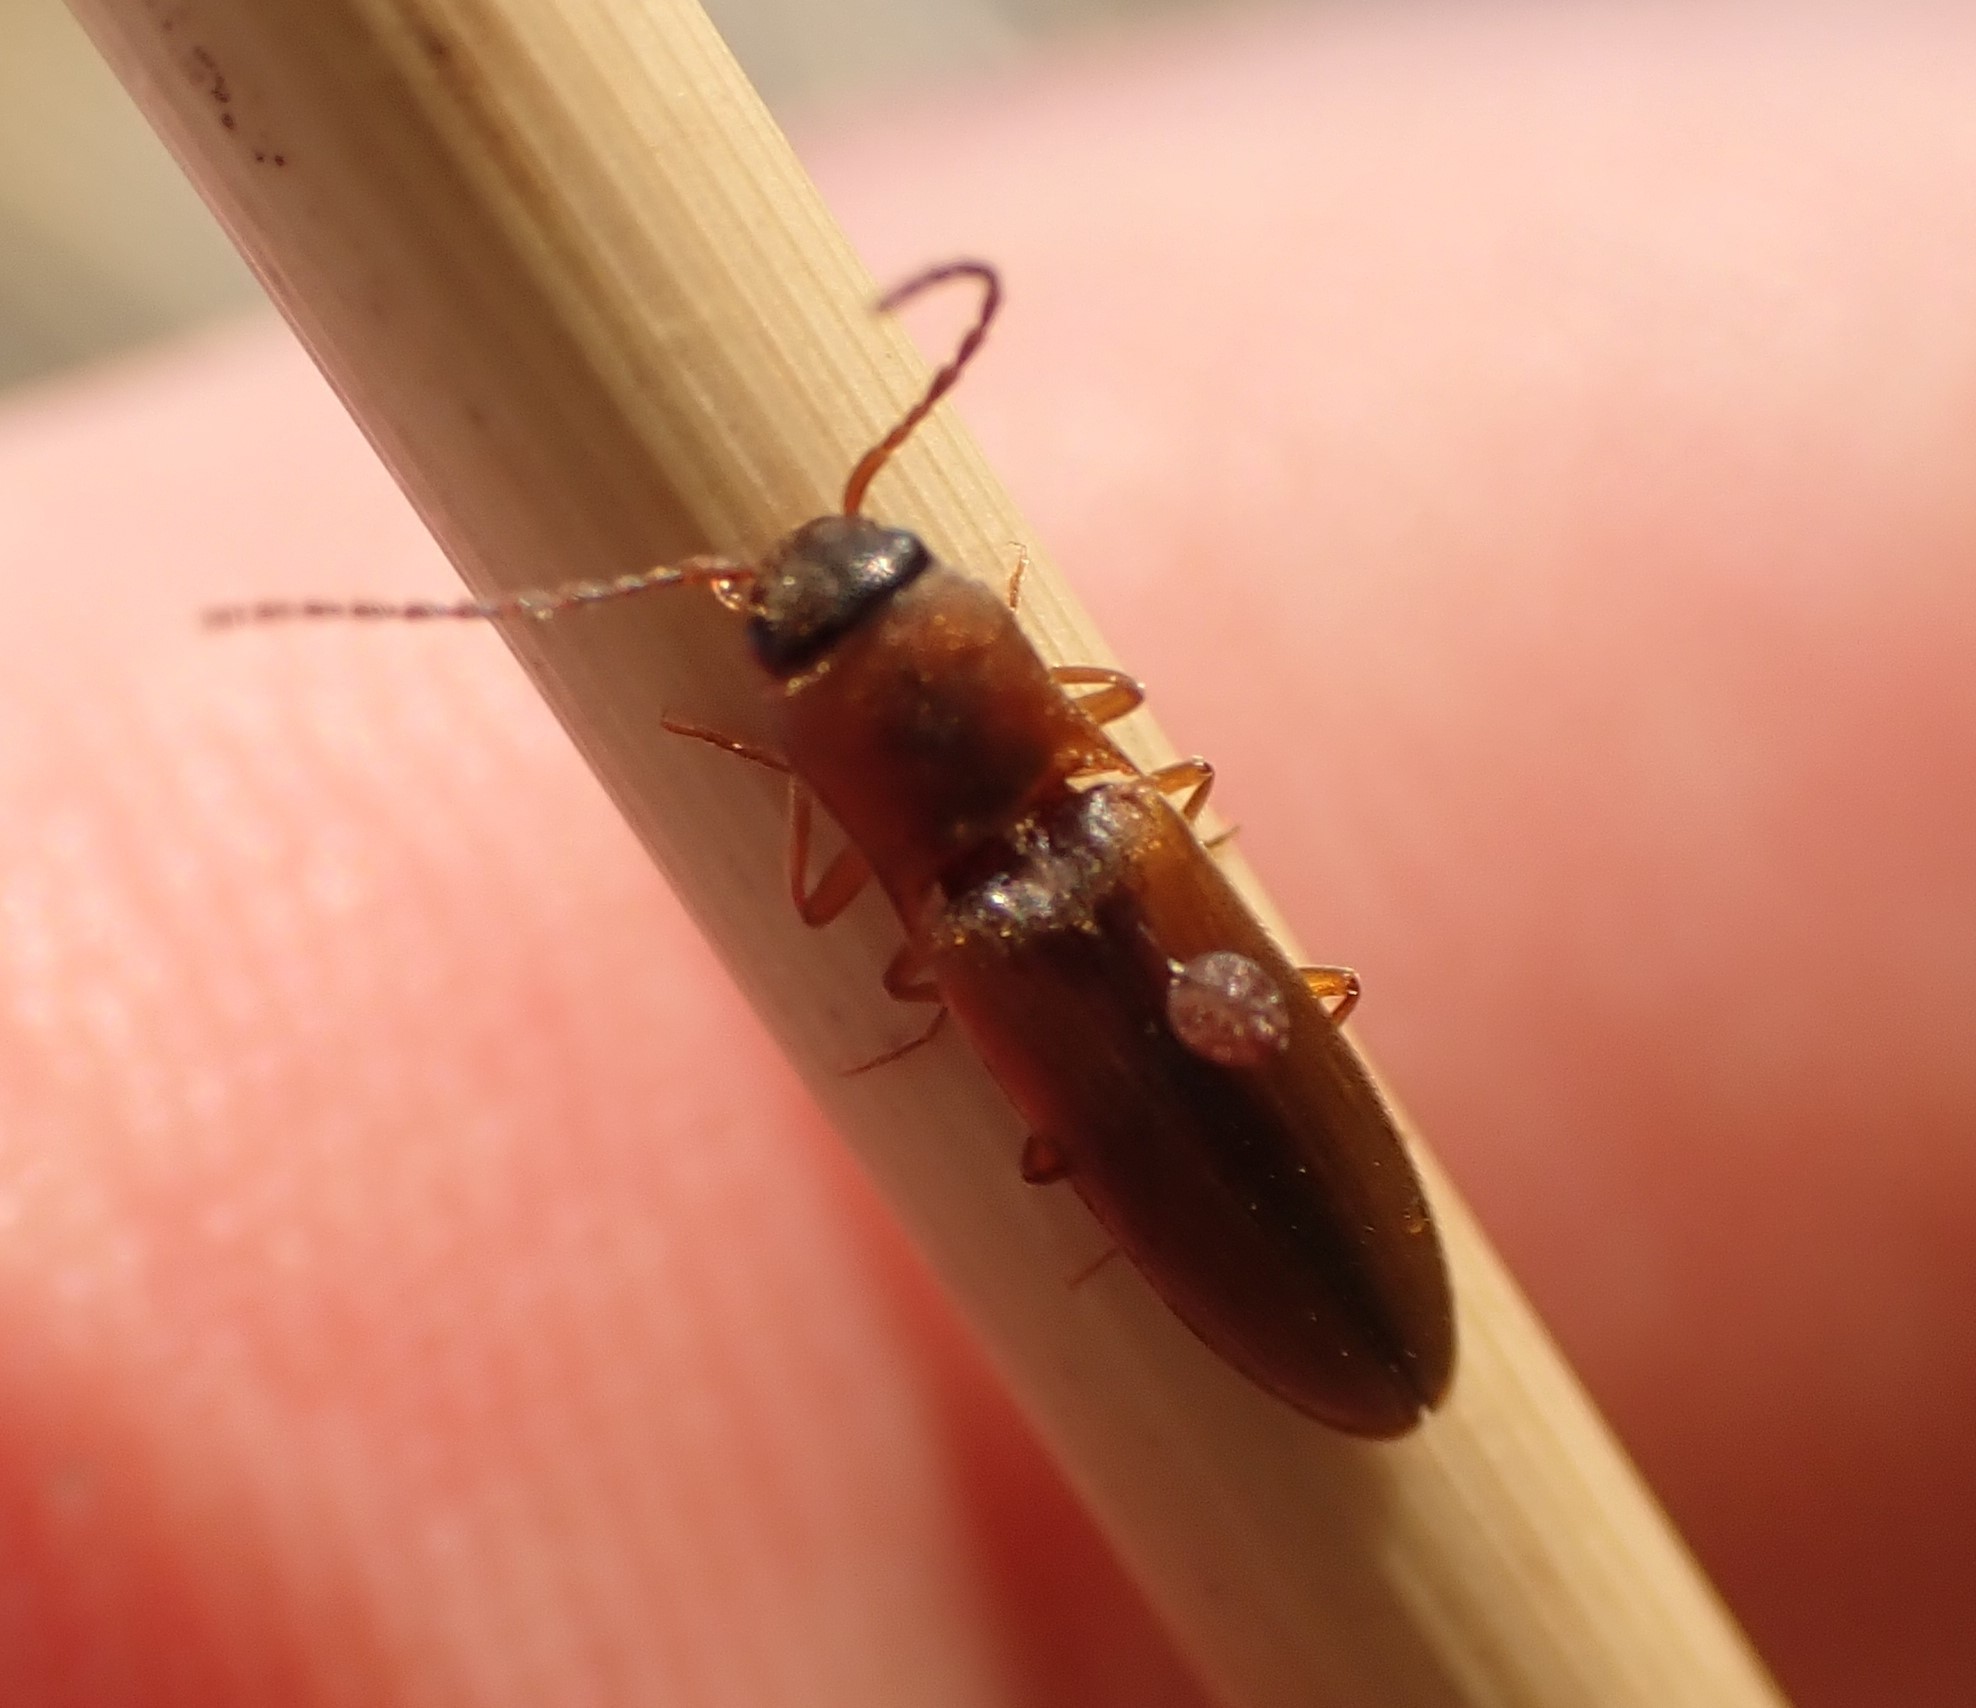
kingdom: Animalia
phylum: Arthropoda
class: Insecta
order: Coleoptera
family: Elateridae
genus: Dalopius
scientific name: Dalopius marginatus
